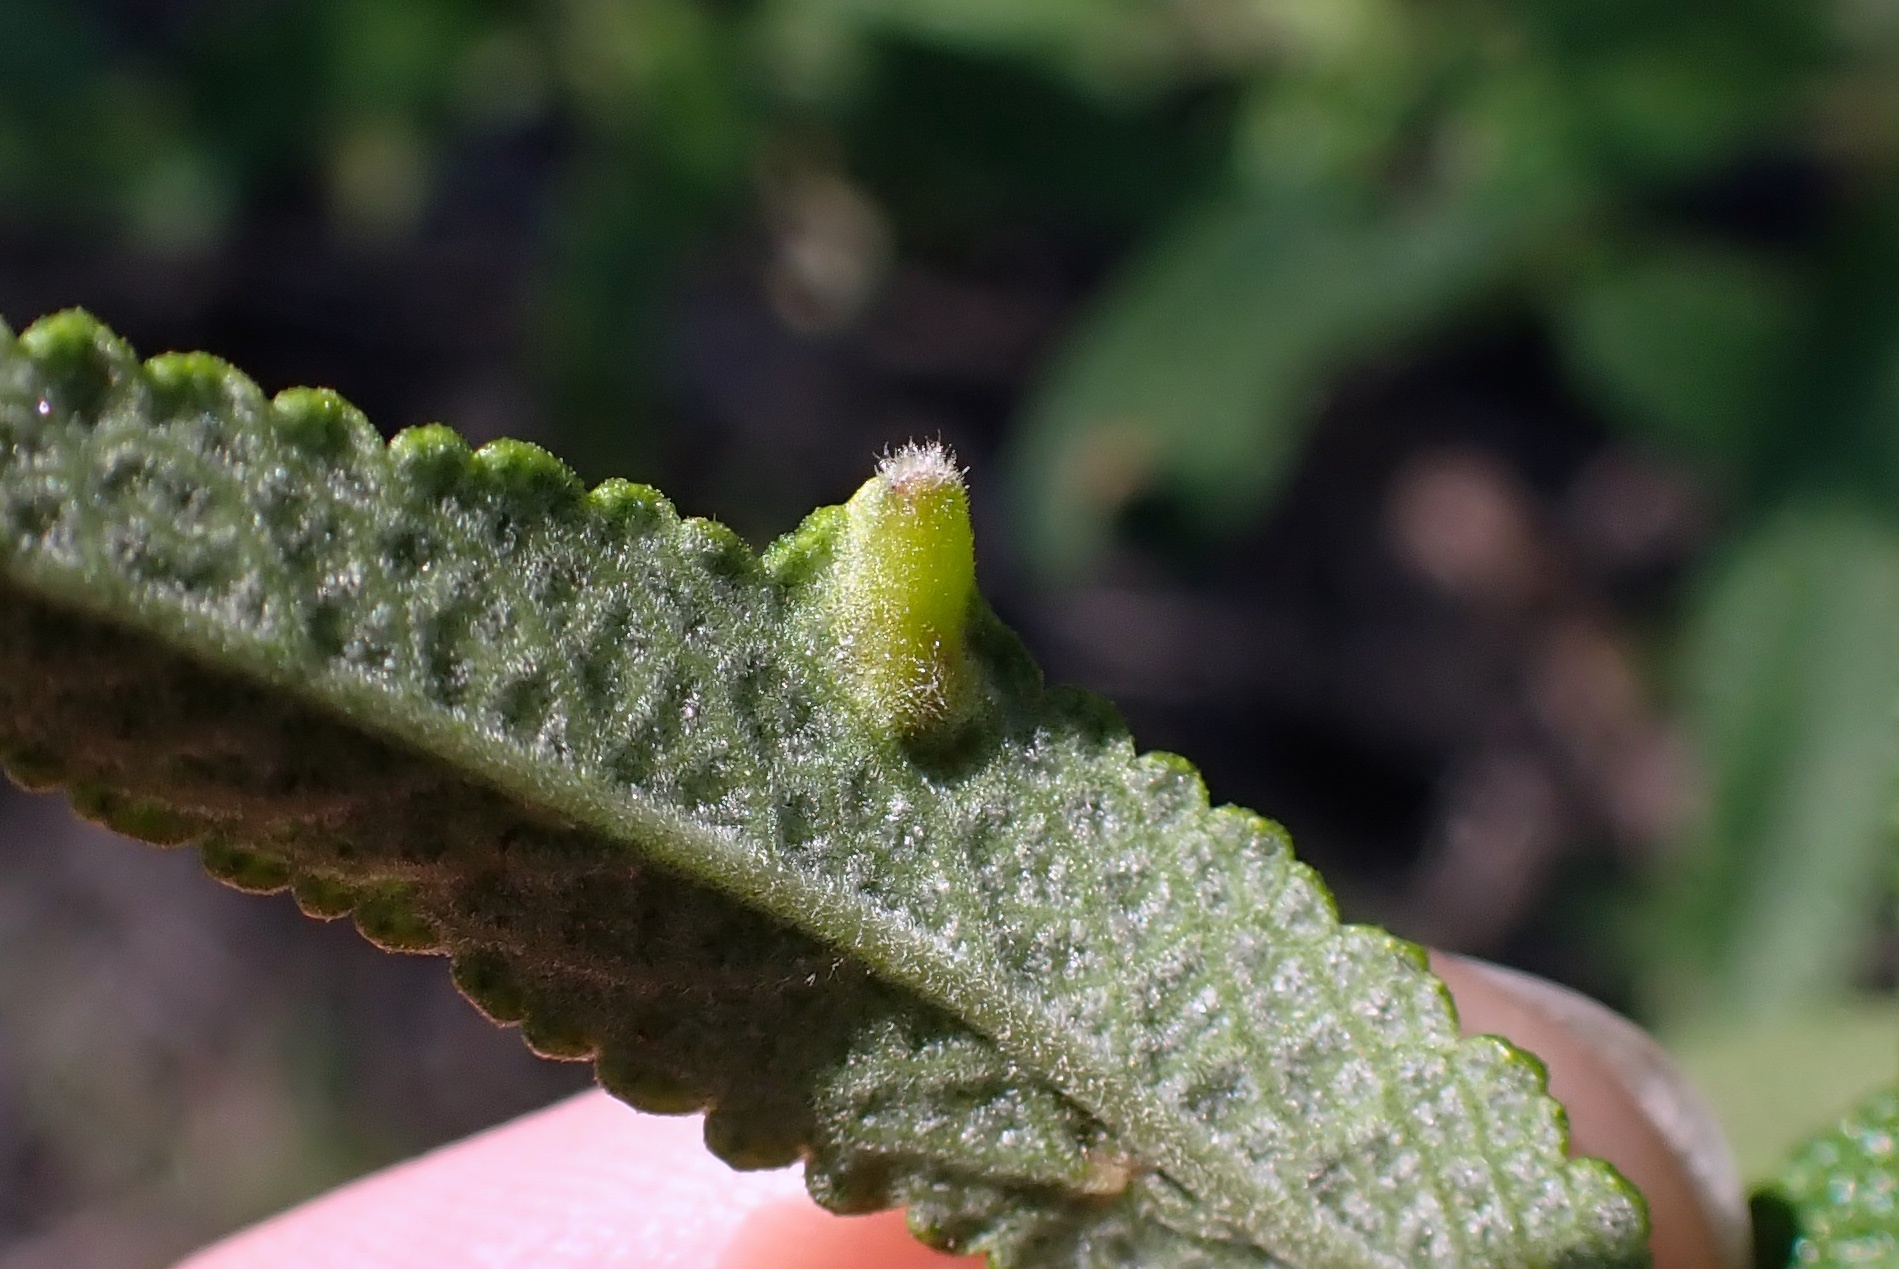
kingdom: Animalia
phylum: Arthropoda
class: Insecta
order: Diptera
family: Cecidomyiidae
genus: Rhopalomyia
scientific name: Rhopalomyia audibertiae
